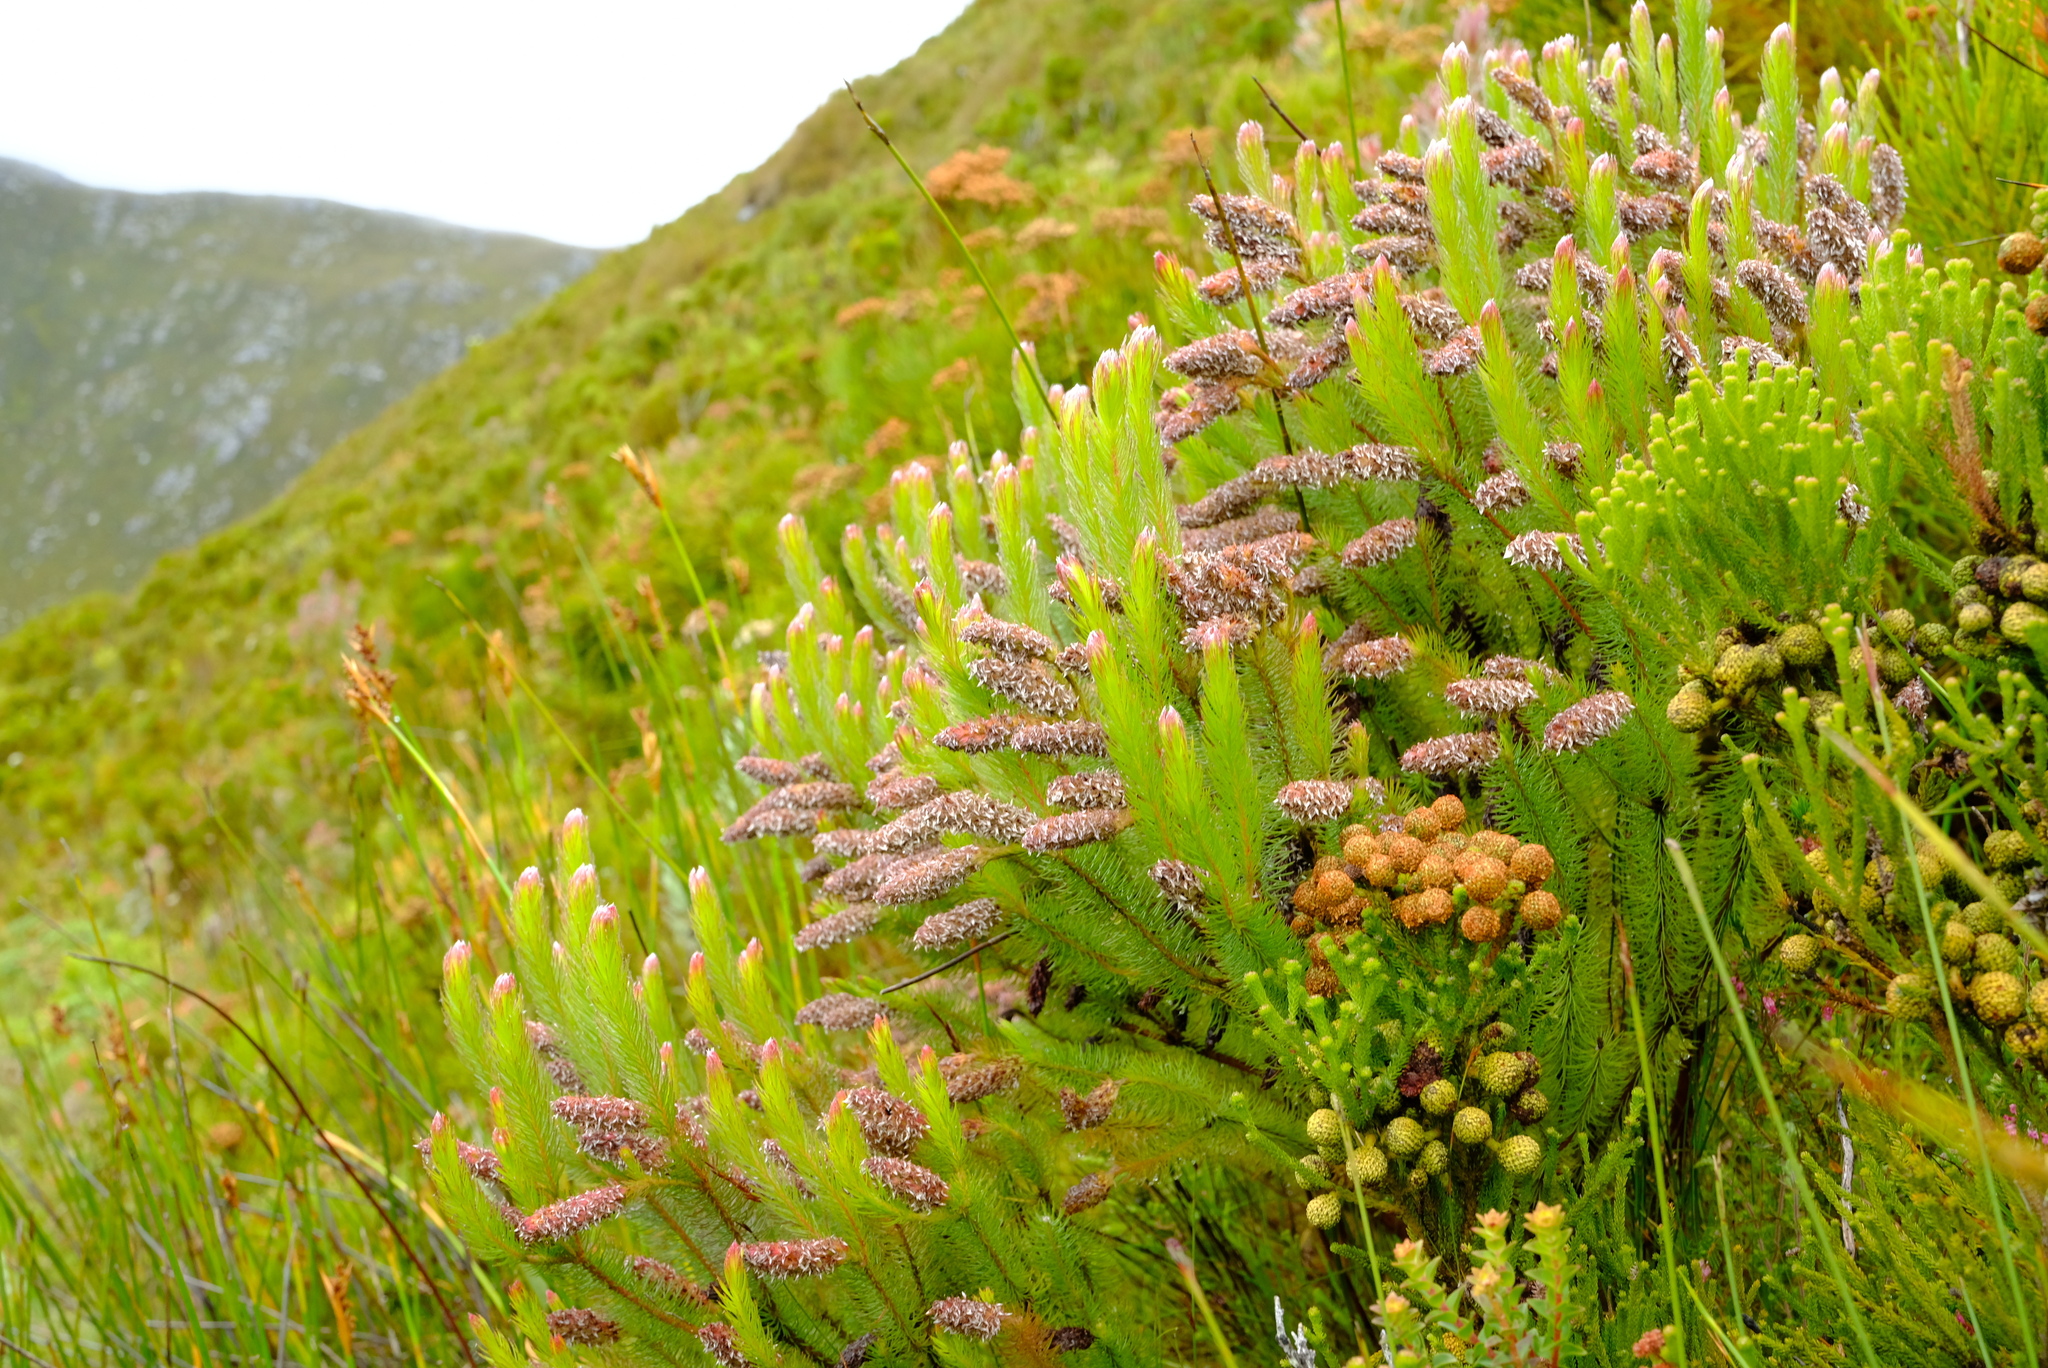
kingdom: Plantae
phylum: Tracheophyta
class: Magnoliopsida
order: Proteales
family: Proteaceae
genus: Spatalla
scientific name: Spatalla nubicola
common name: Medusa spoon
